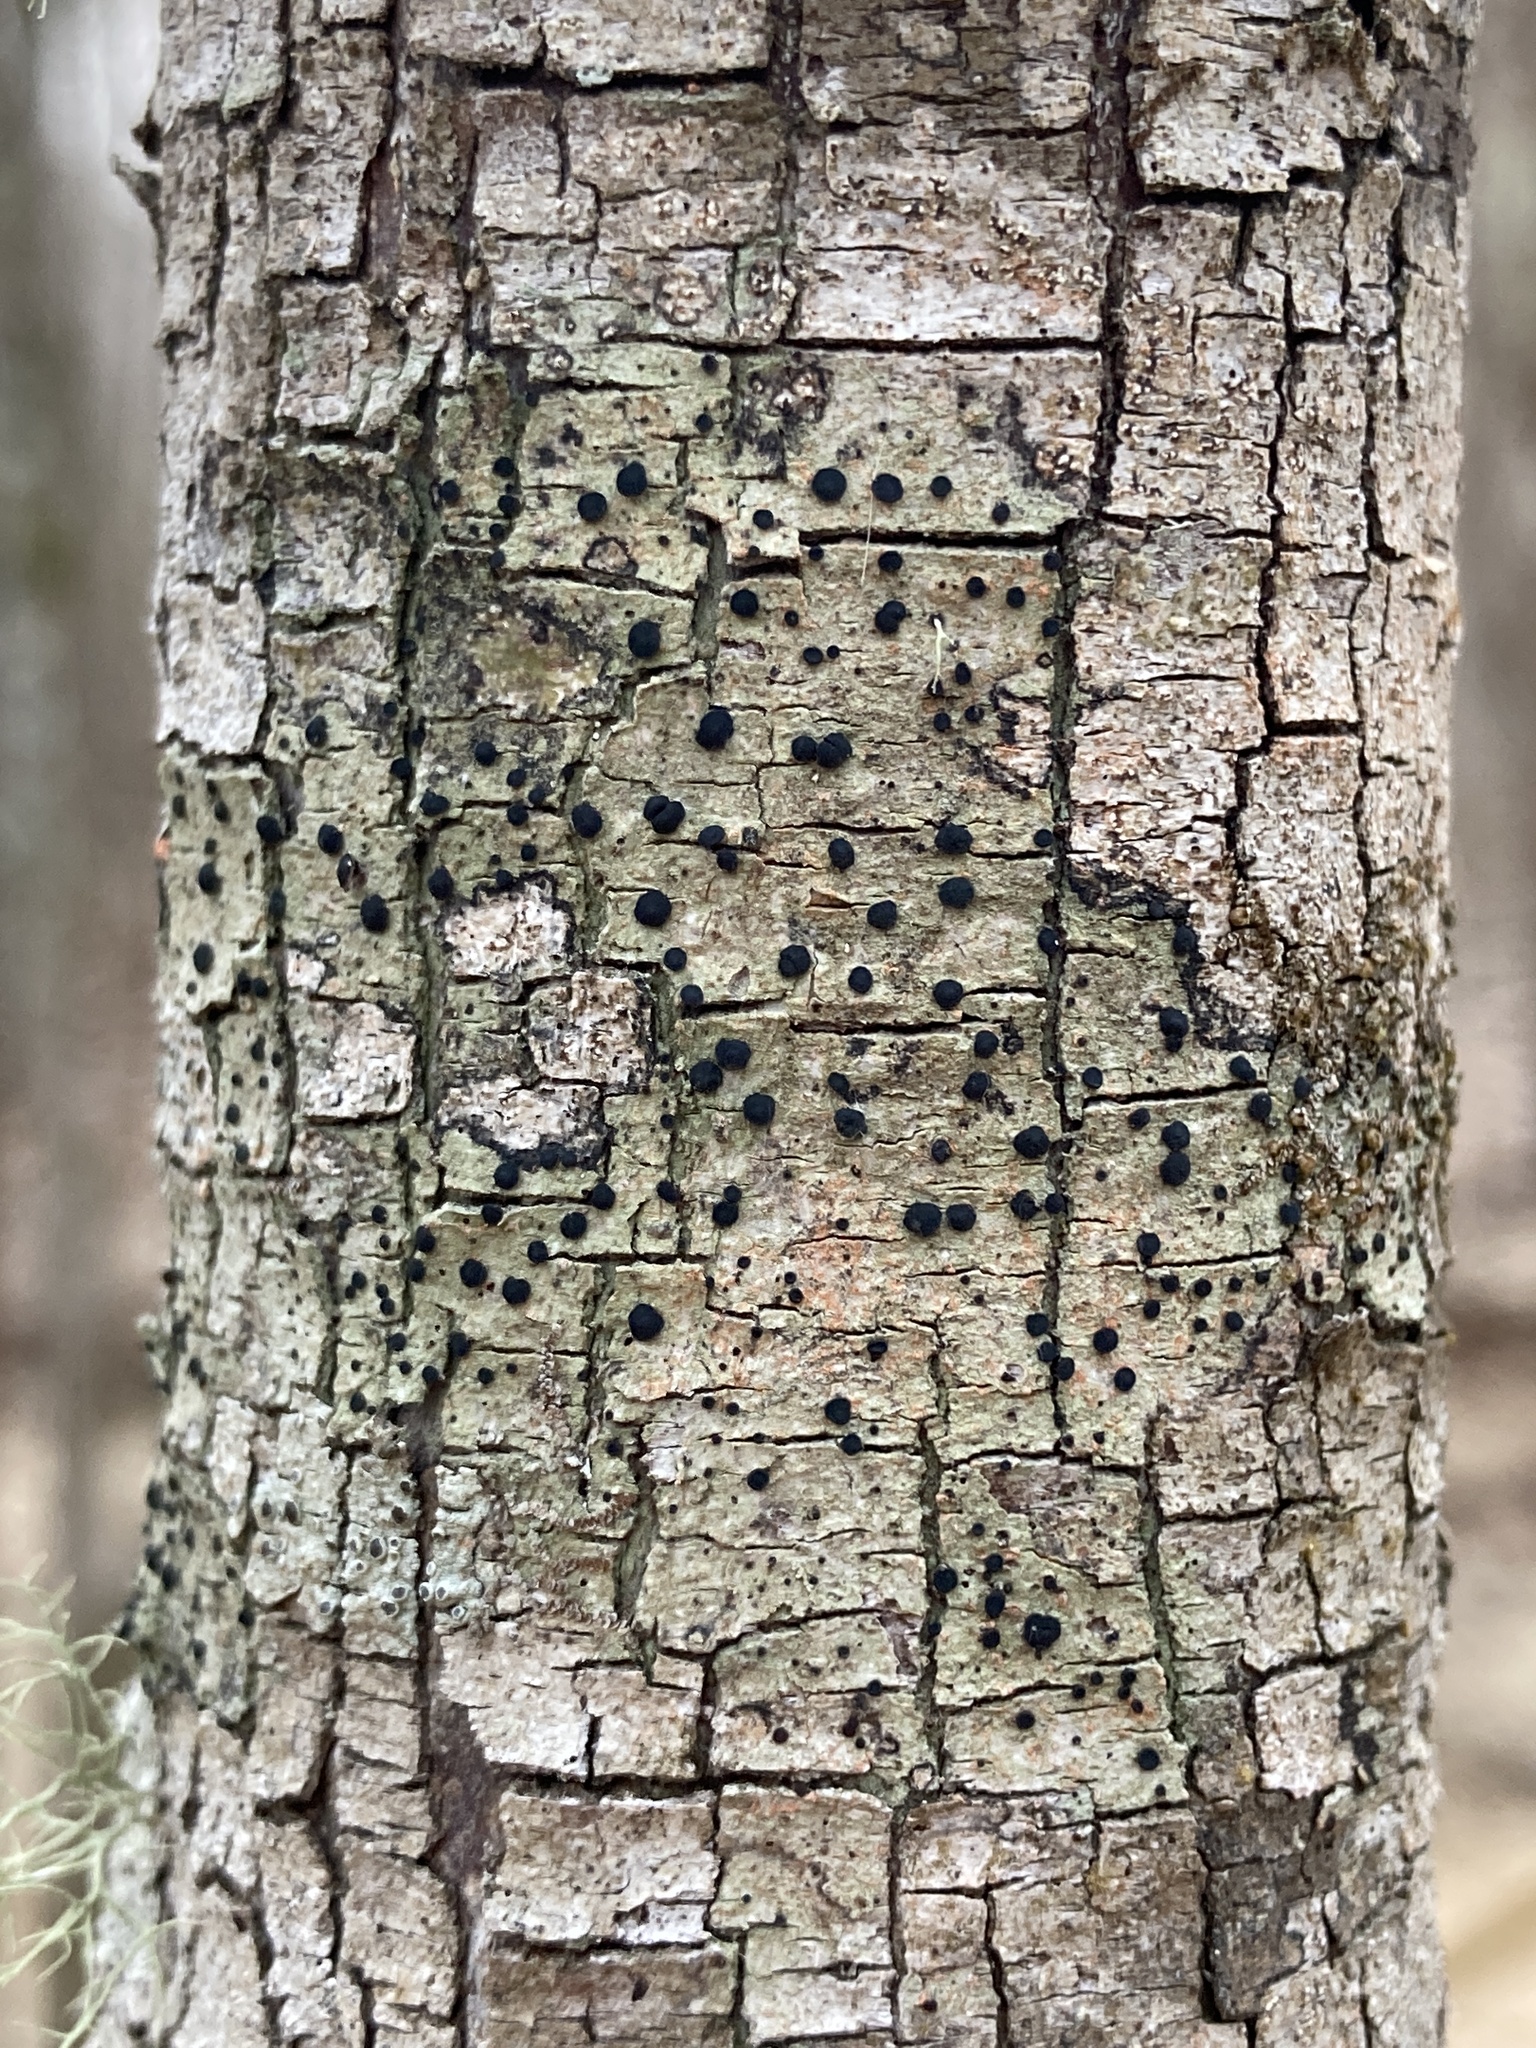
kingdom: Fungi
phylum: Ascomycota
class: Lecanoromycetes
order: Lecanorales
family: Ramalinaceae
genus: Bacidia
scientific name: Bacidia schweinitzii
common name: Surprise lichen
